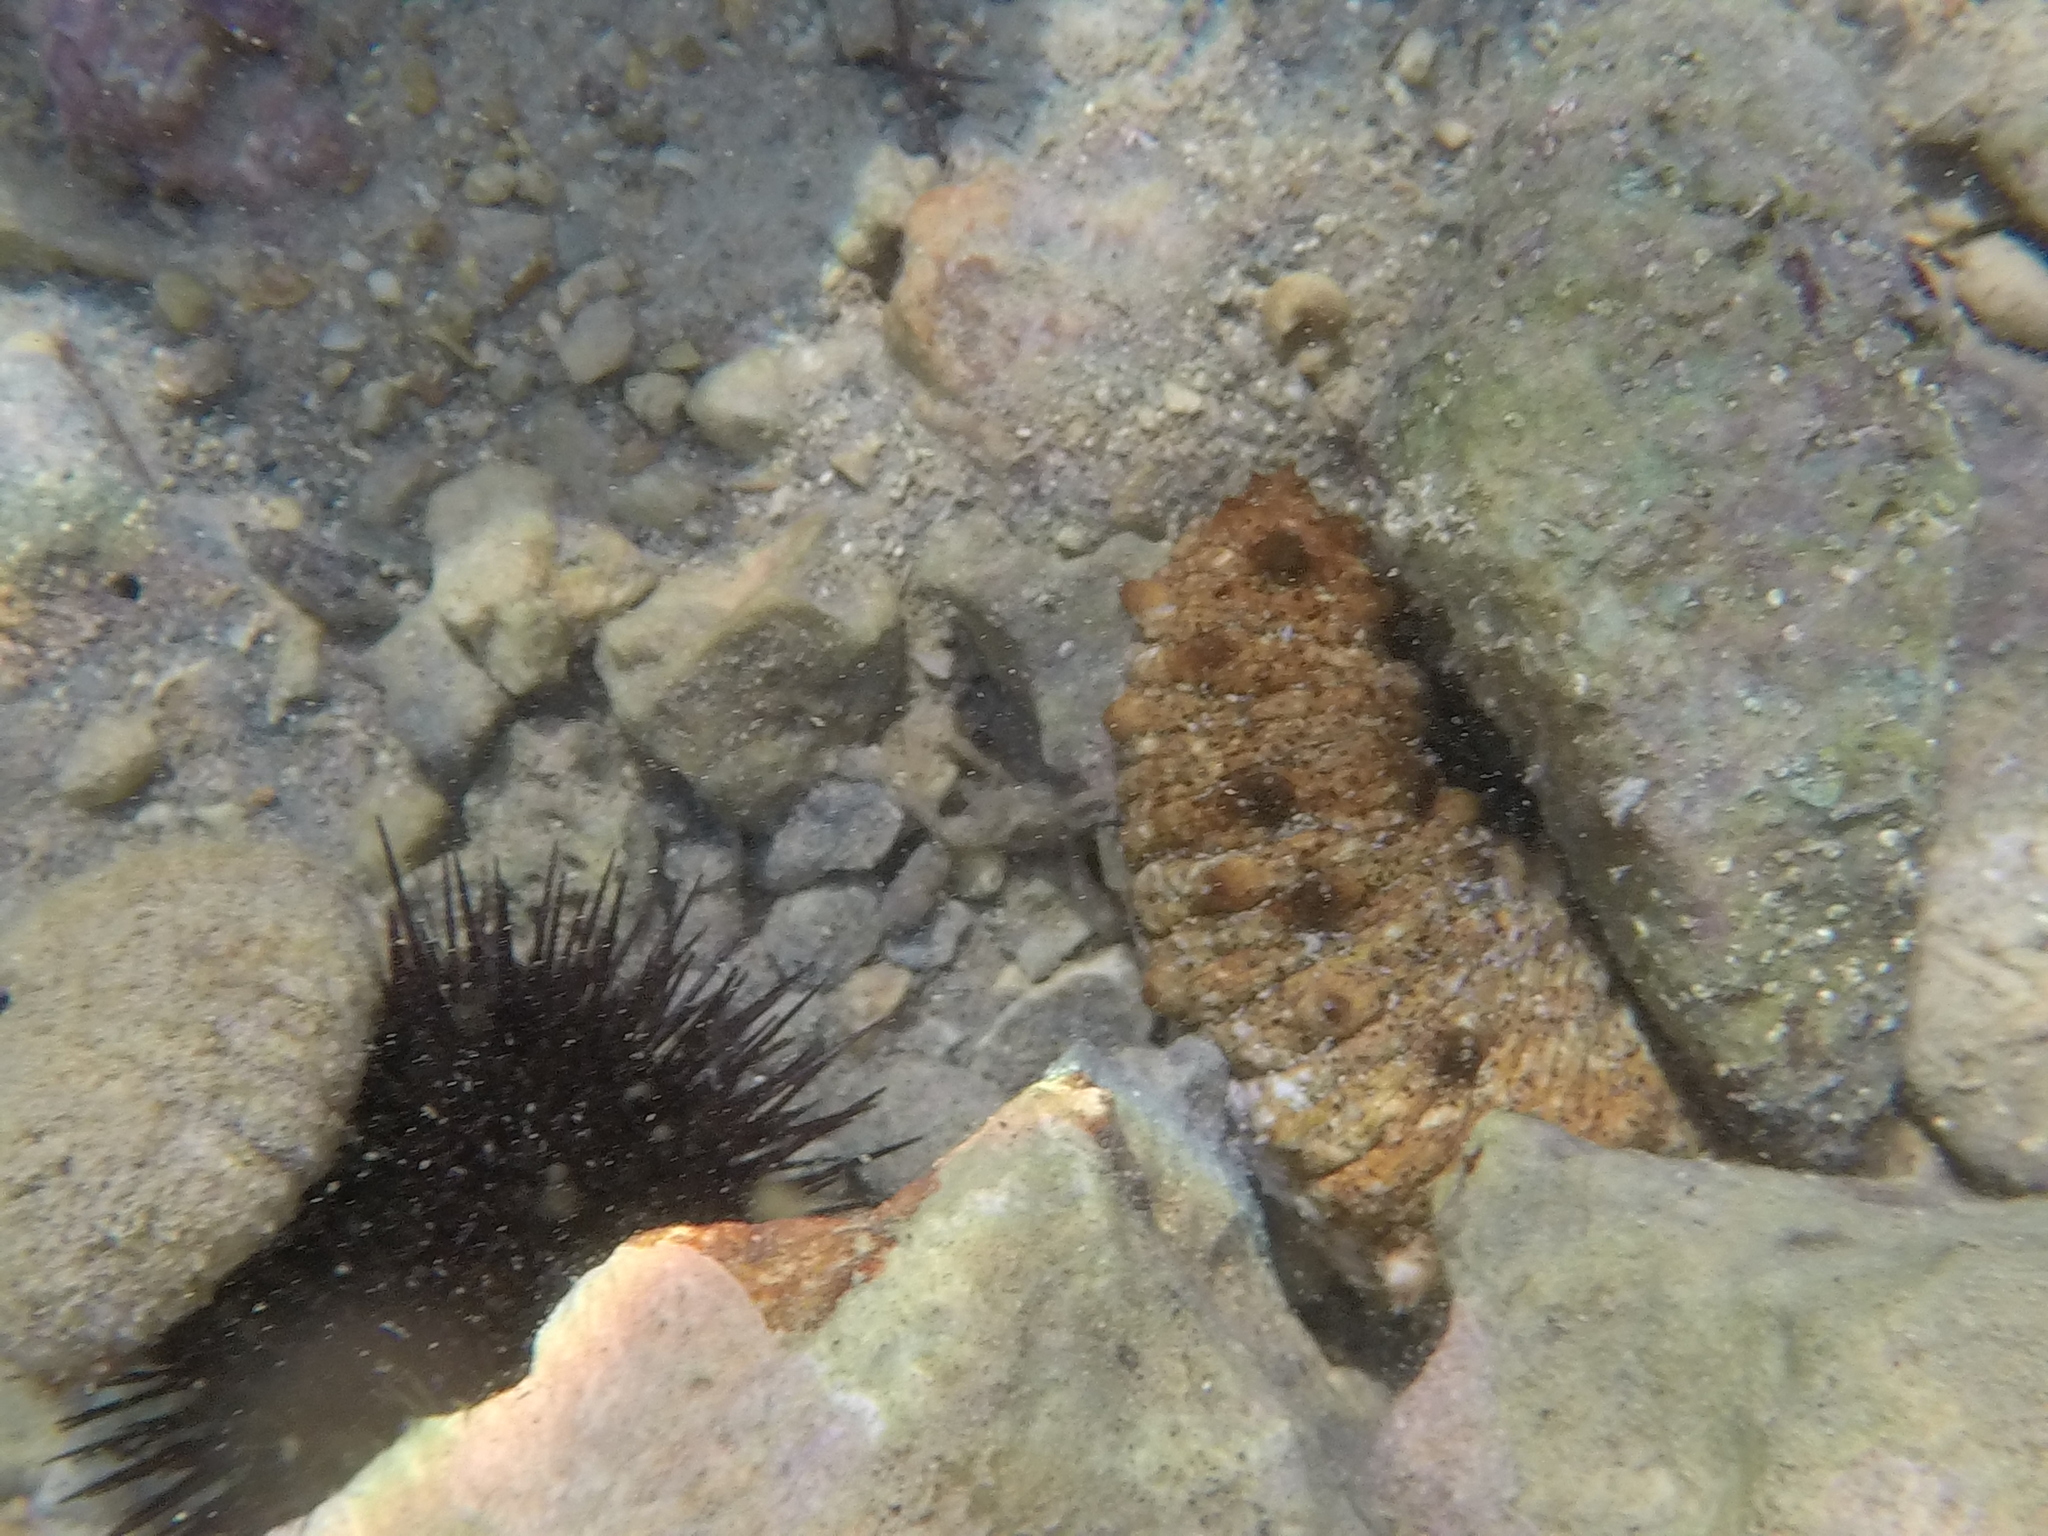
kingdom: Animalia
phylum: Echinodermata
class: Holothuroidea
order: Holothuriida
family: Holothuriidae
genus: Holothuria
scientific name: Holothuria
